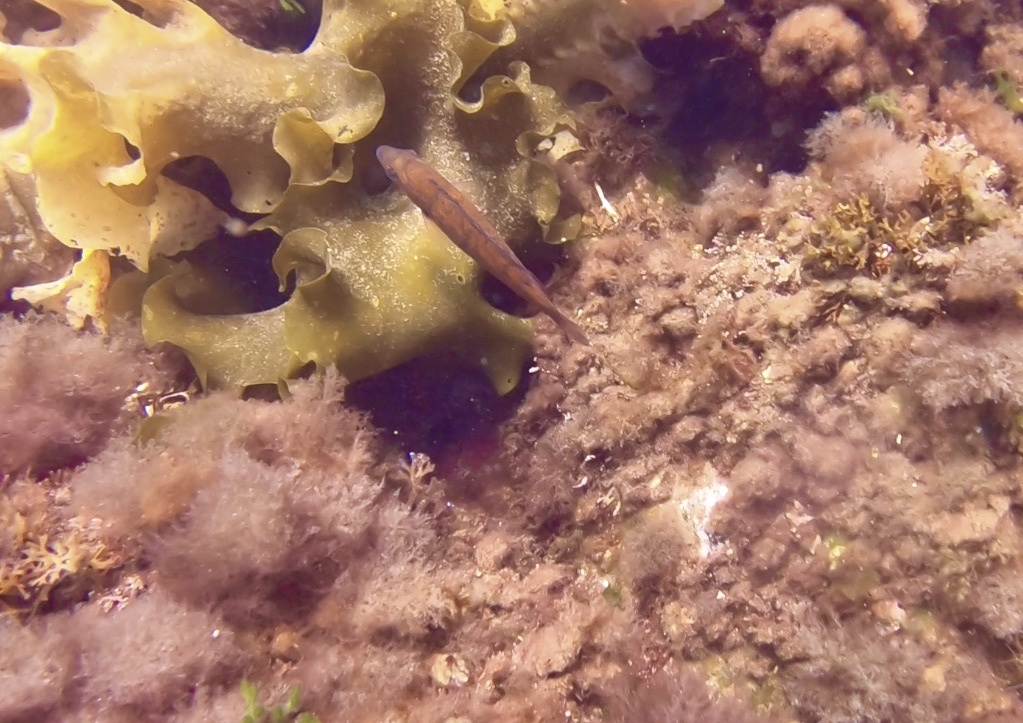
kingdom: Animalia
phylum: Chordata
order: Perciformes
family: Labridae
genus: Tautogolabrus
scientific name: Tautogolabrus adspersus
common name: Cunner
